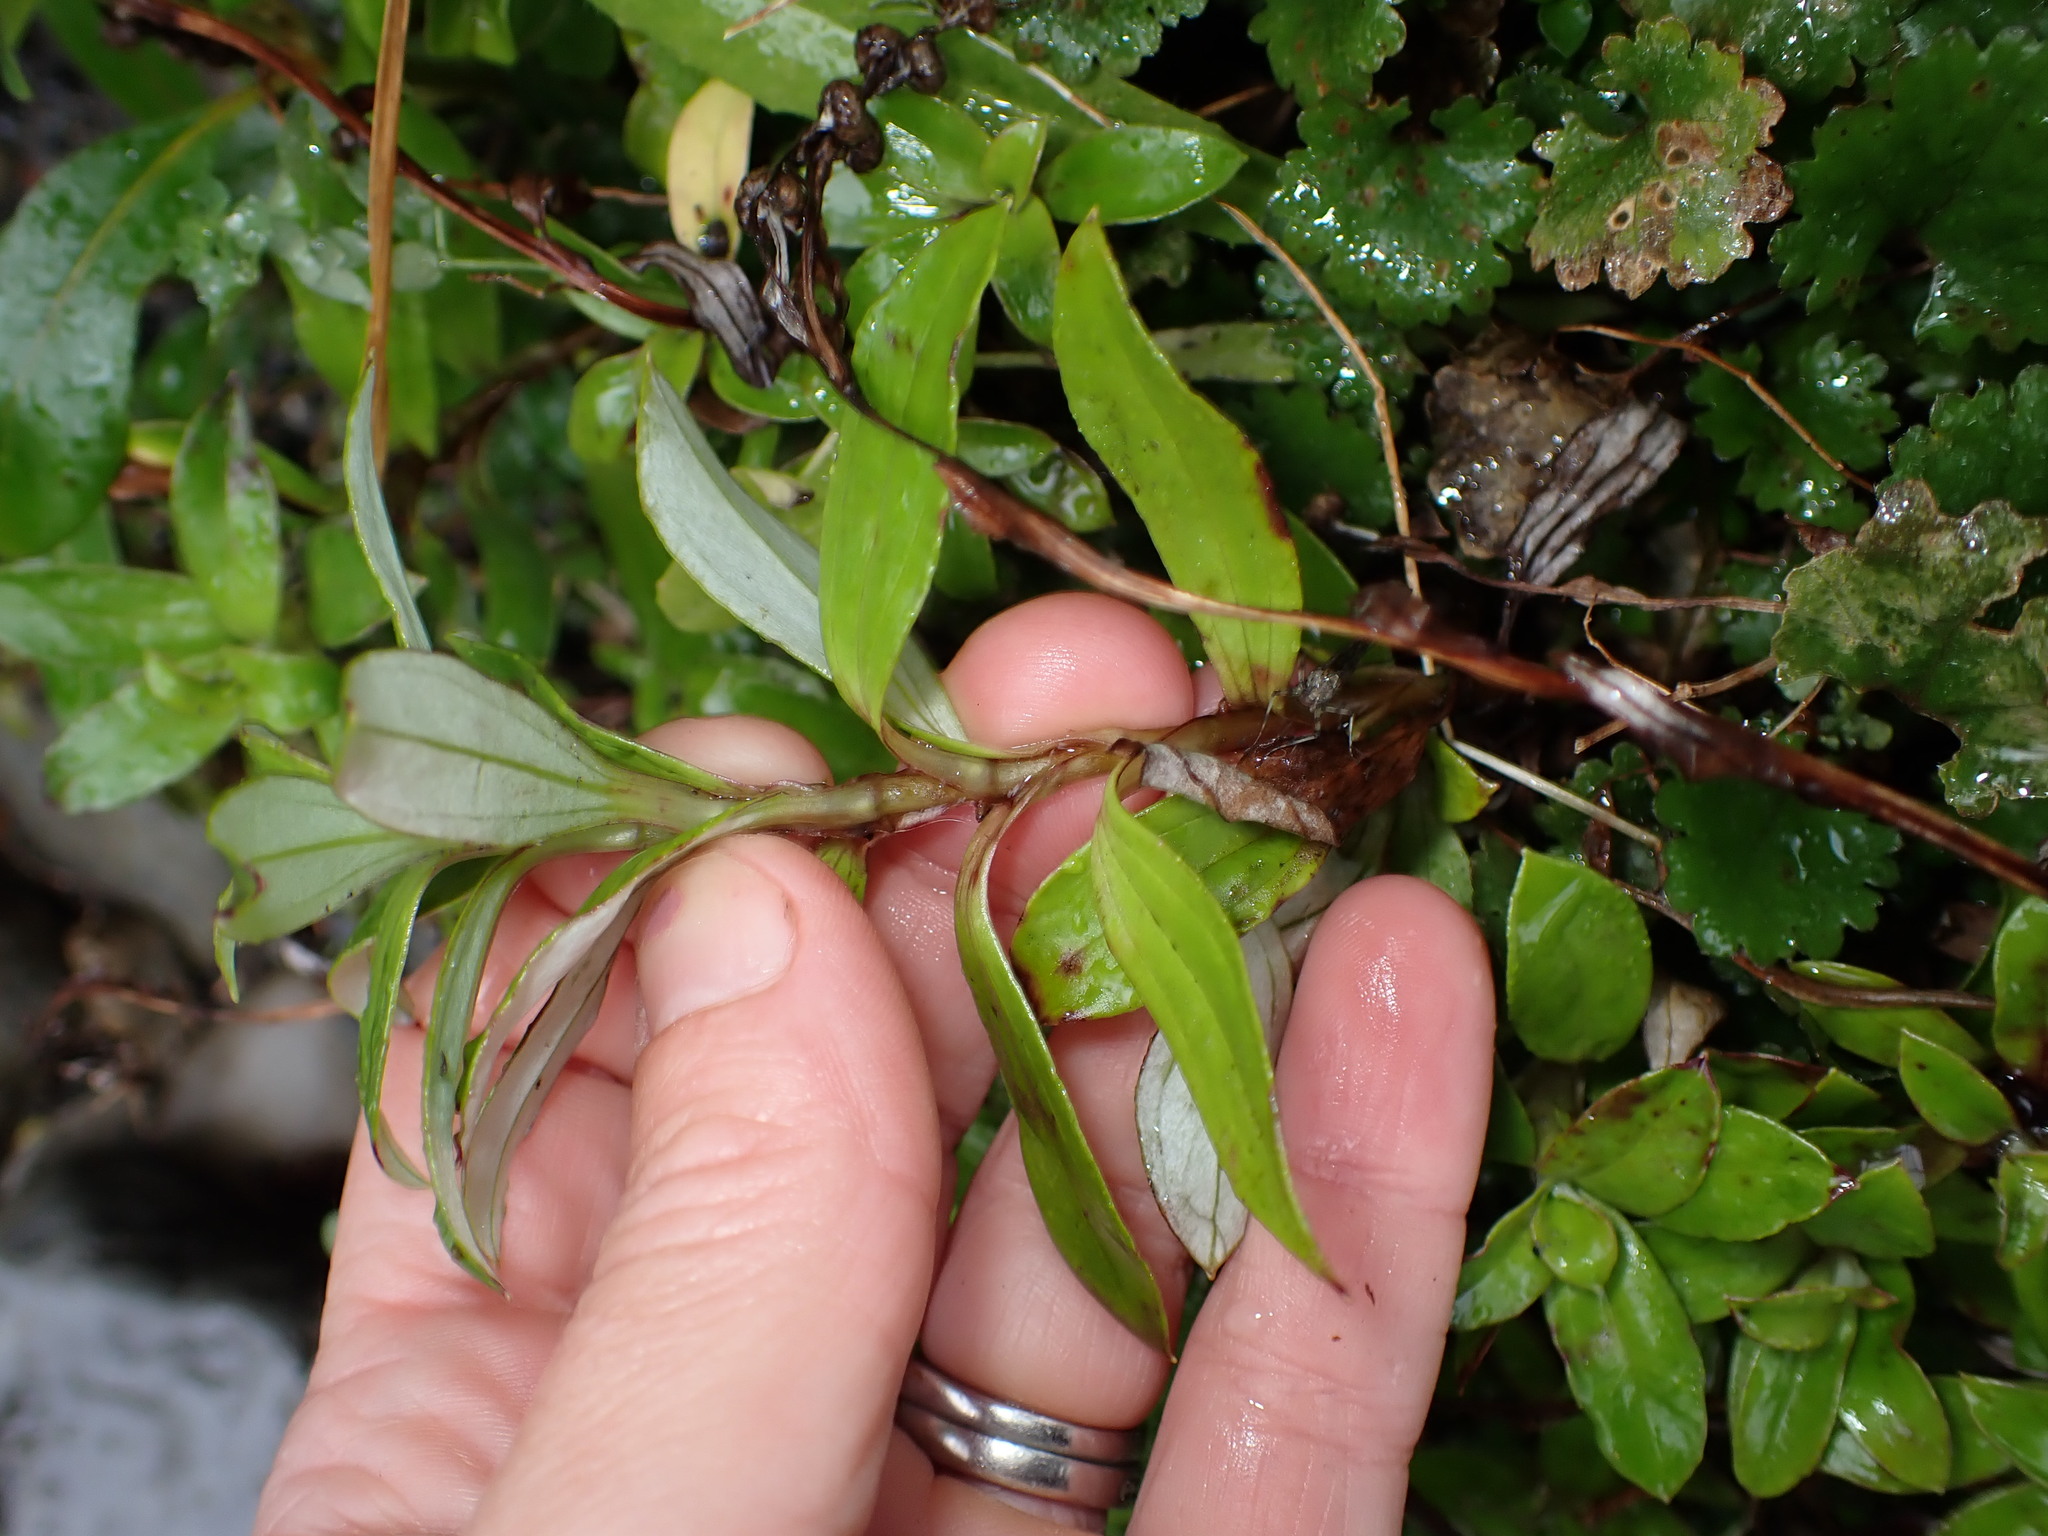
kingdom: Plantae
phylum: Tracheophyta
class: Magnoliopsida
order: Asterales
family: Asteraceae
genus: Anaphalioides
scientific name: Anaphalioides trinervis
